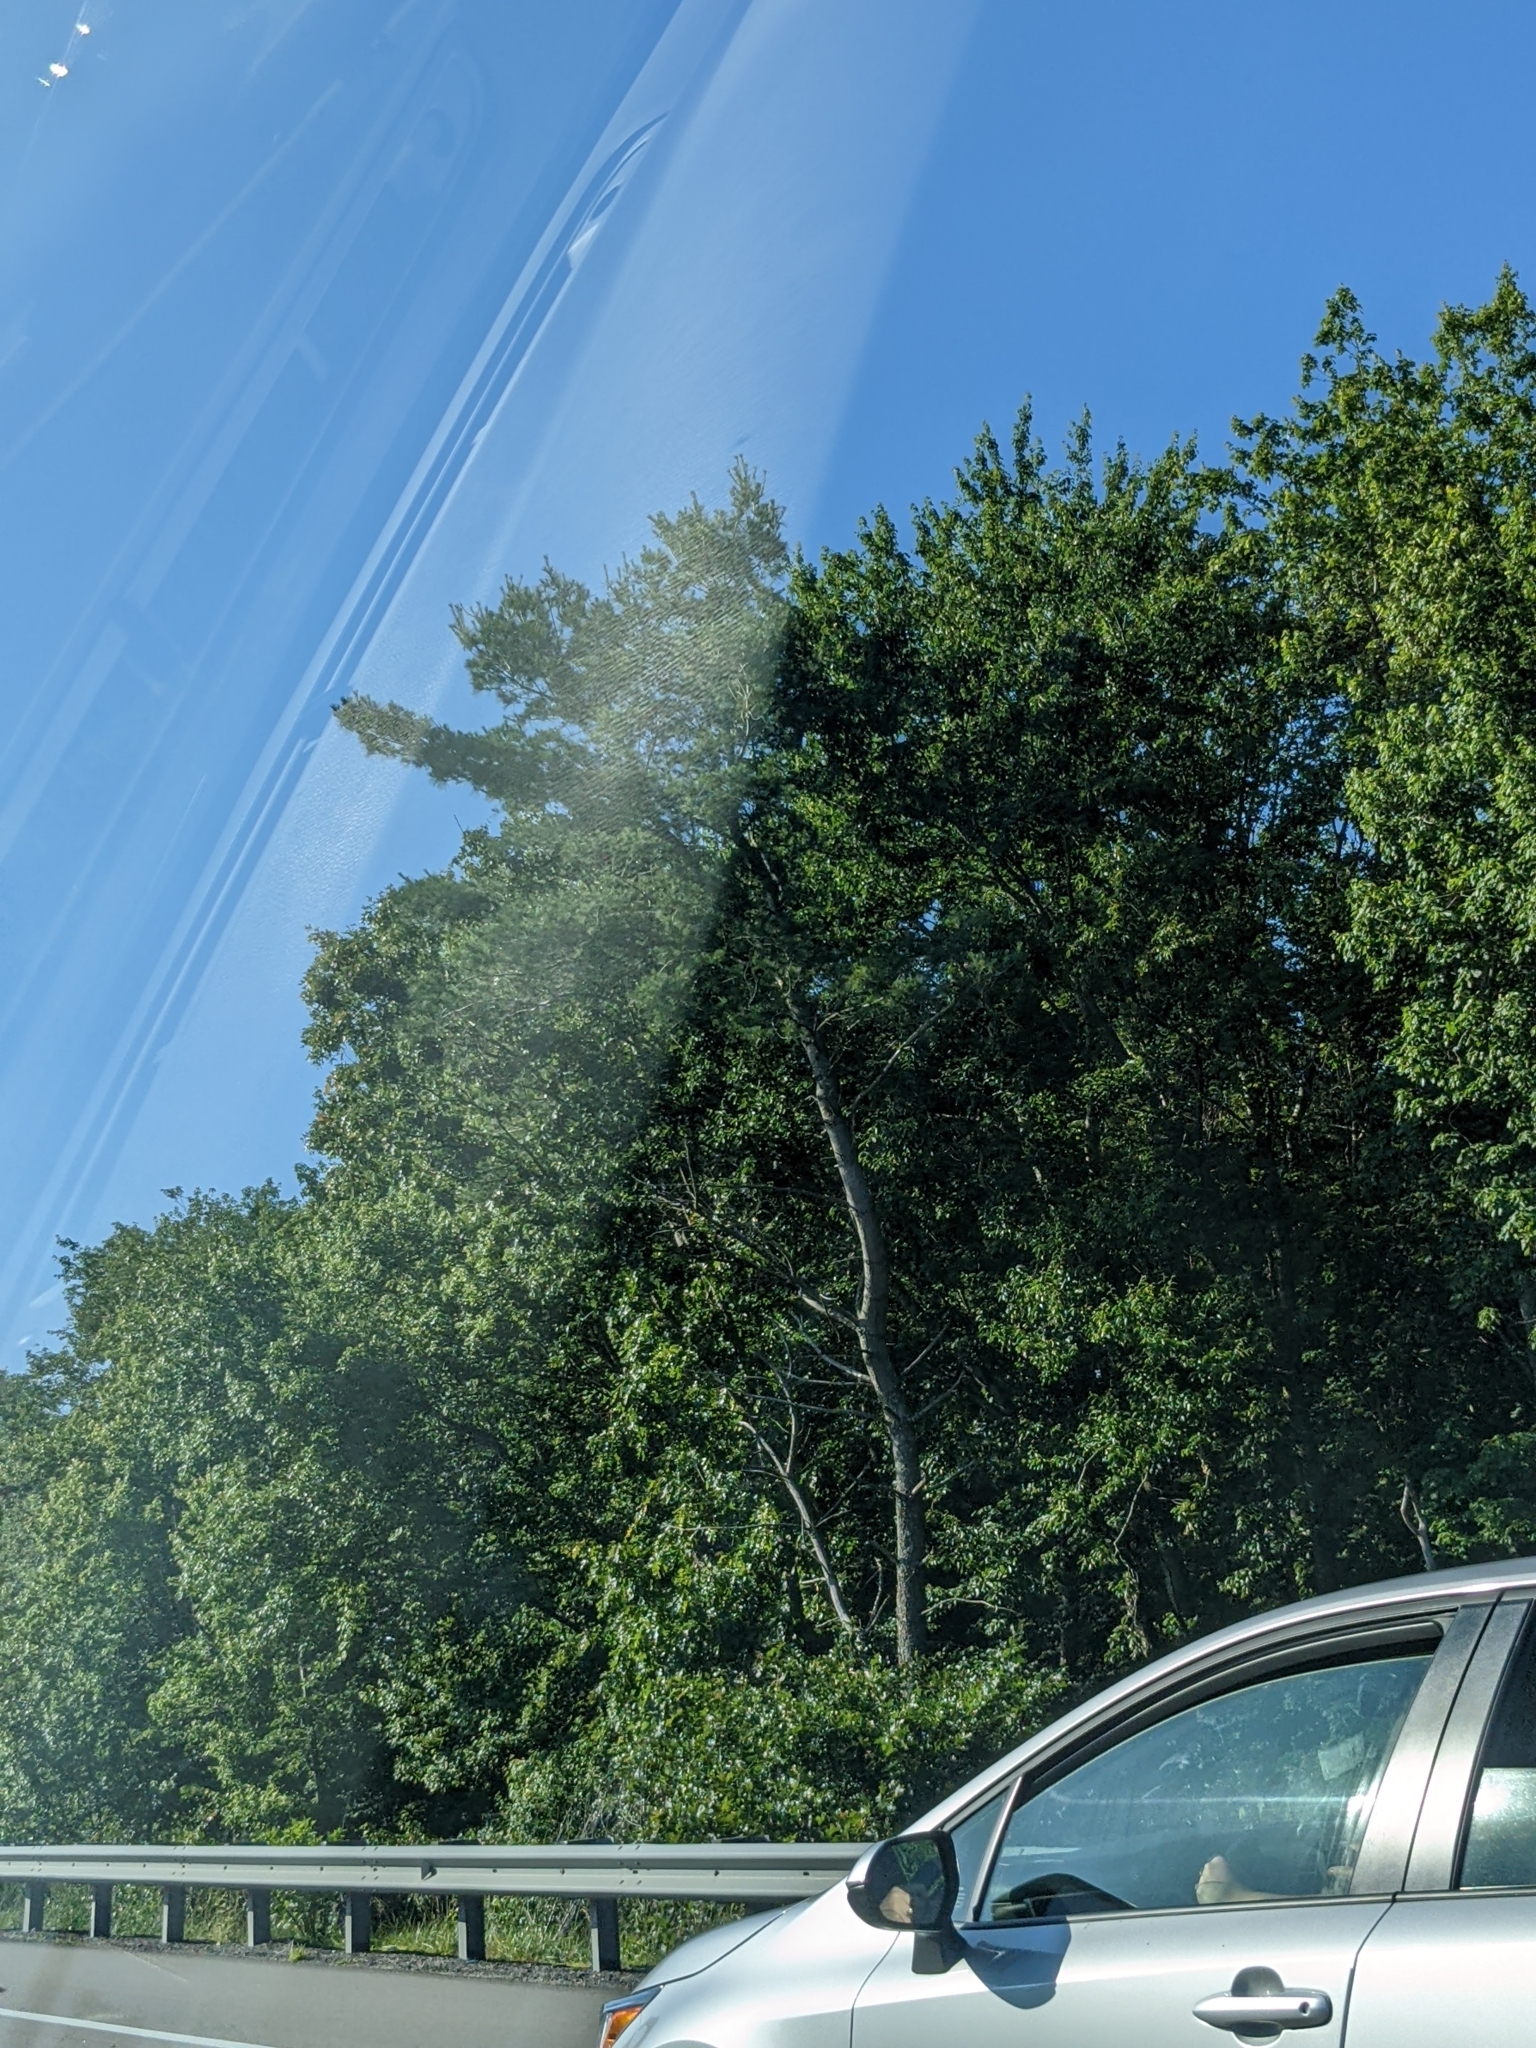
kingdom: Plantae
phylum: Tracheophyta
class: Pinopsida
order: Pinales
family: Pinaceae
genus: Pinus
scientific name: Pinus strobus
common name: Weymouth pine
